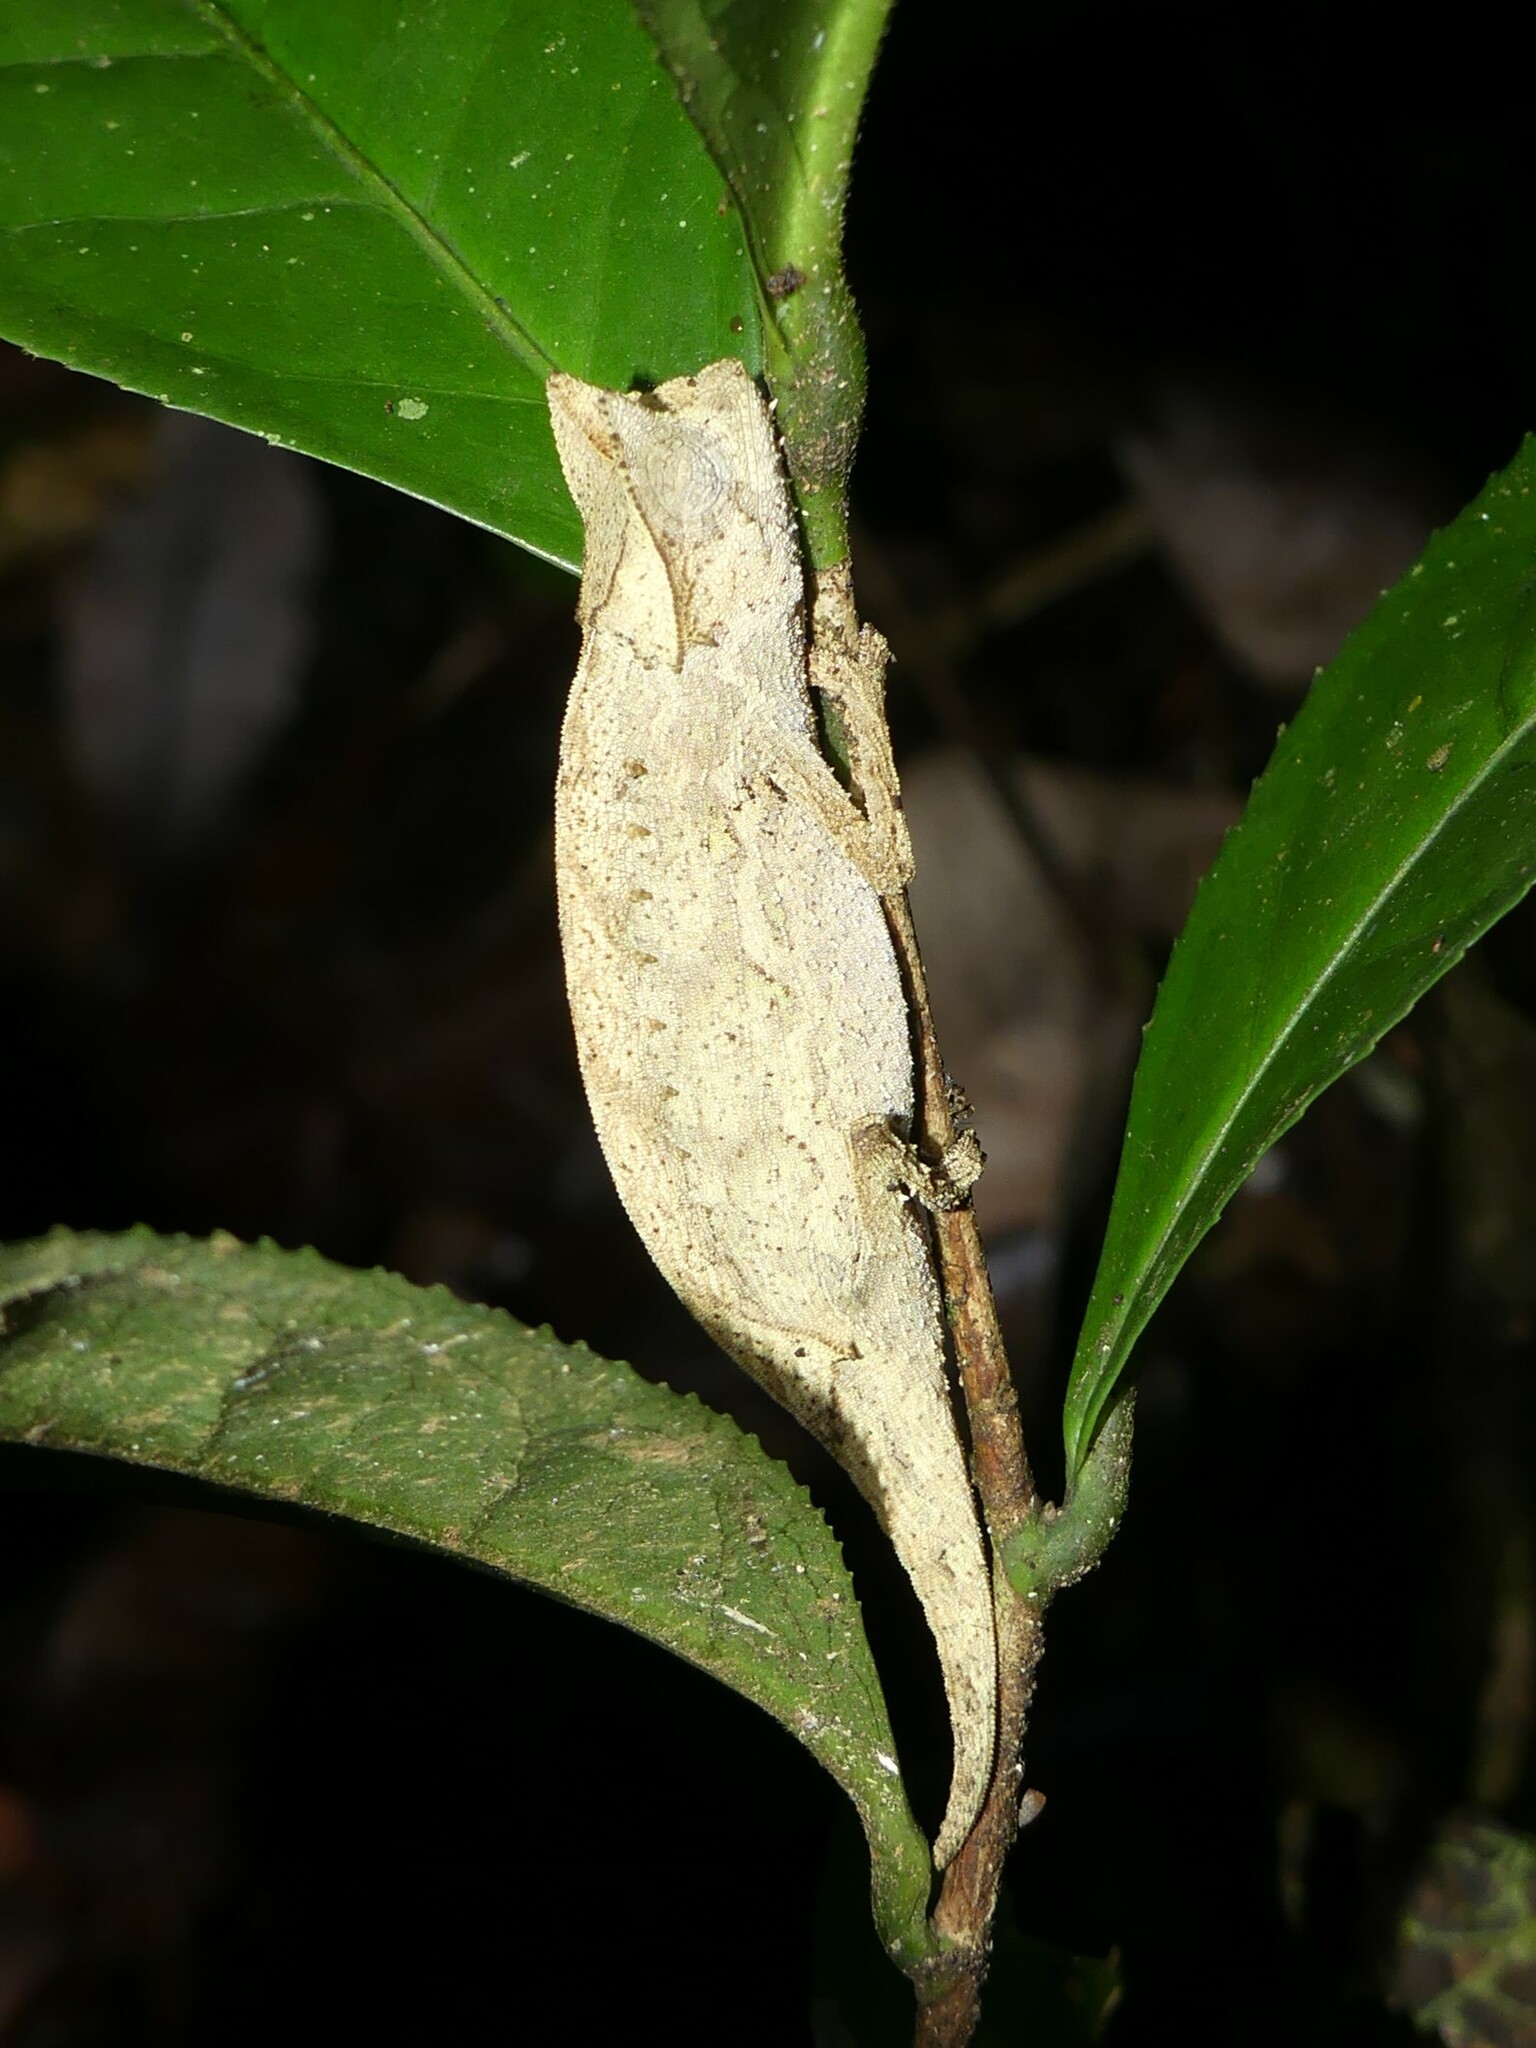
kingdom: Animalia
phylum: Chordata
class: Squamata
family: Chamaeleonidae
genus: Brookesia
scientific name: Brookesia superciliaris
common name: Brown leaf chameleon
